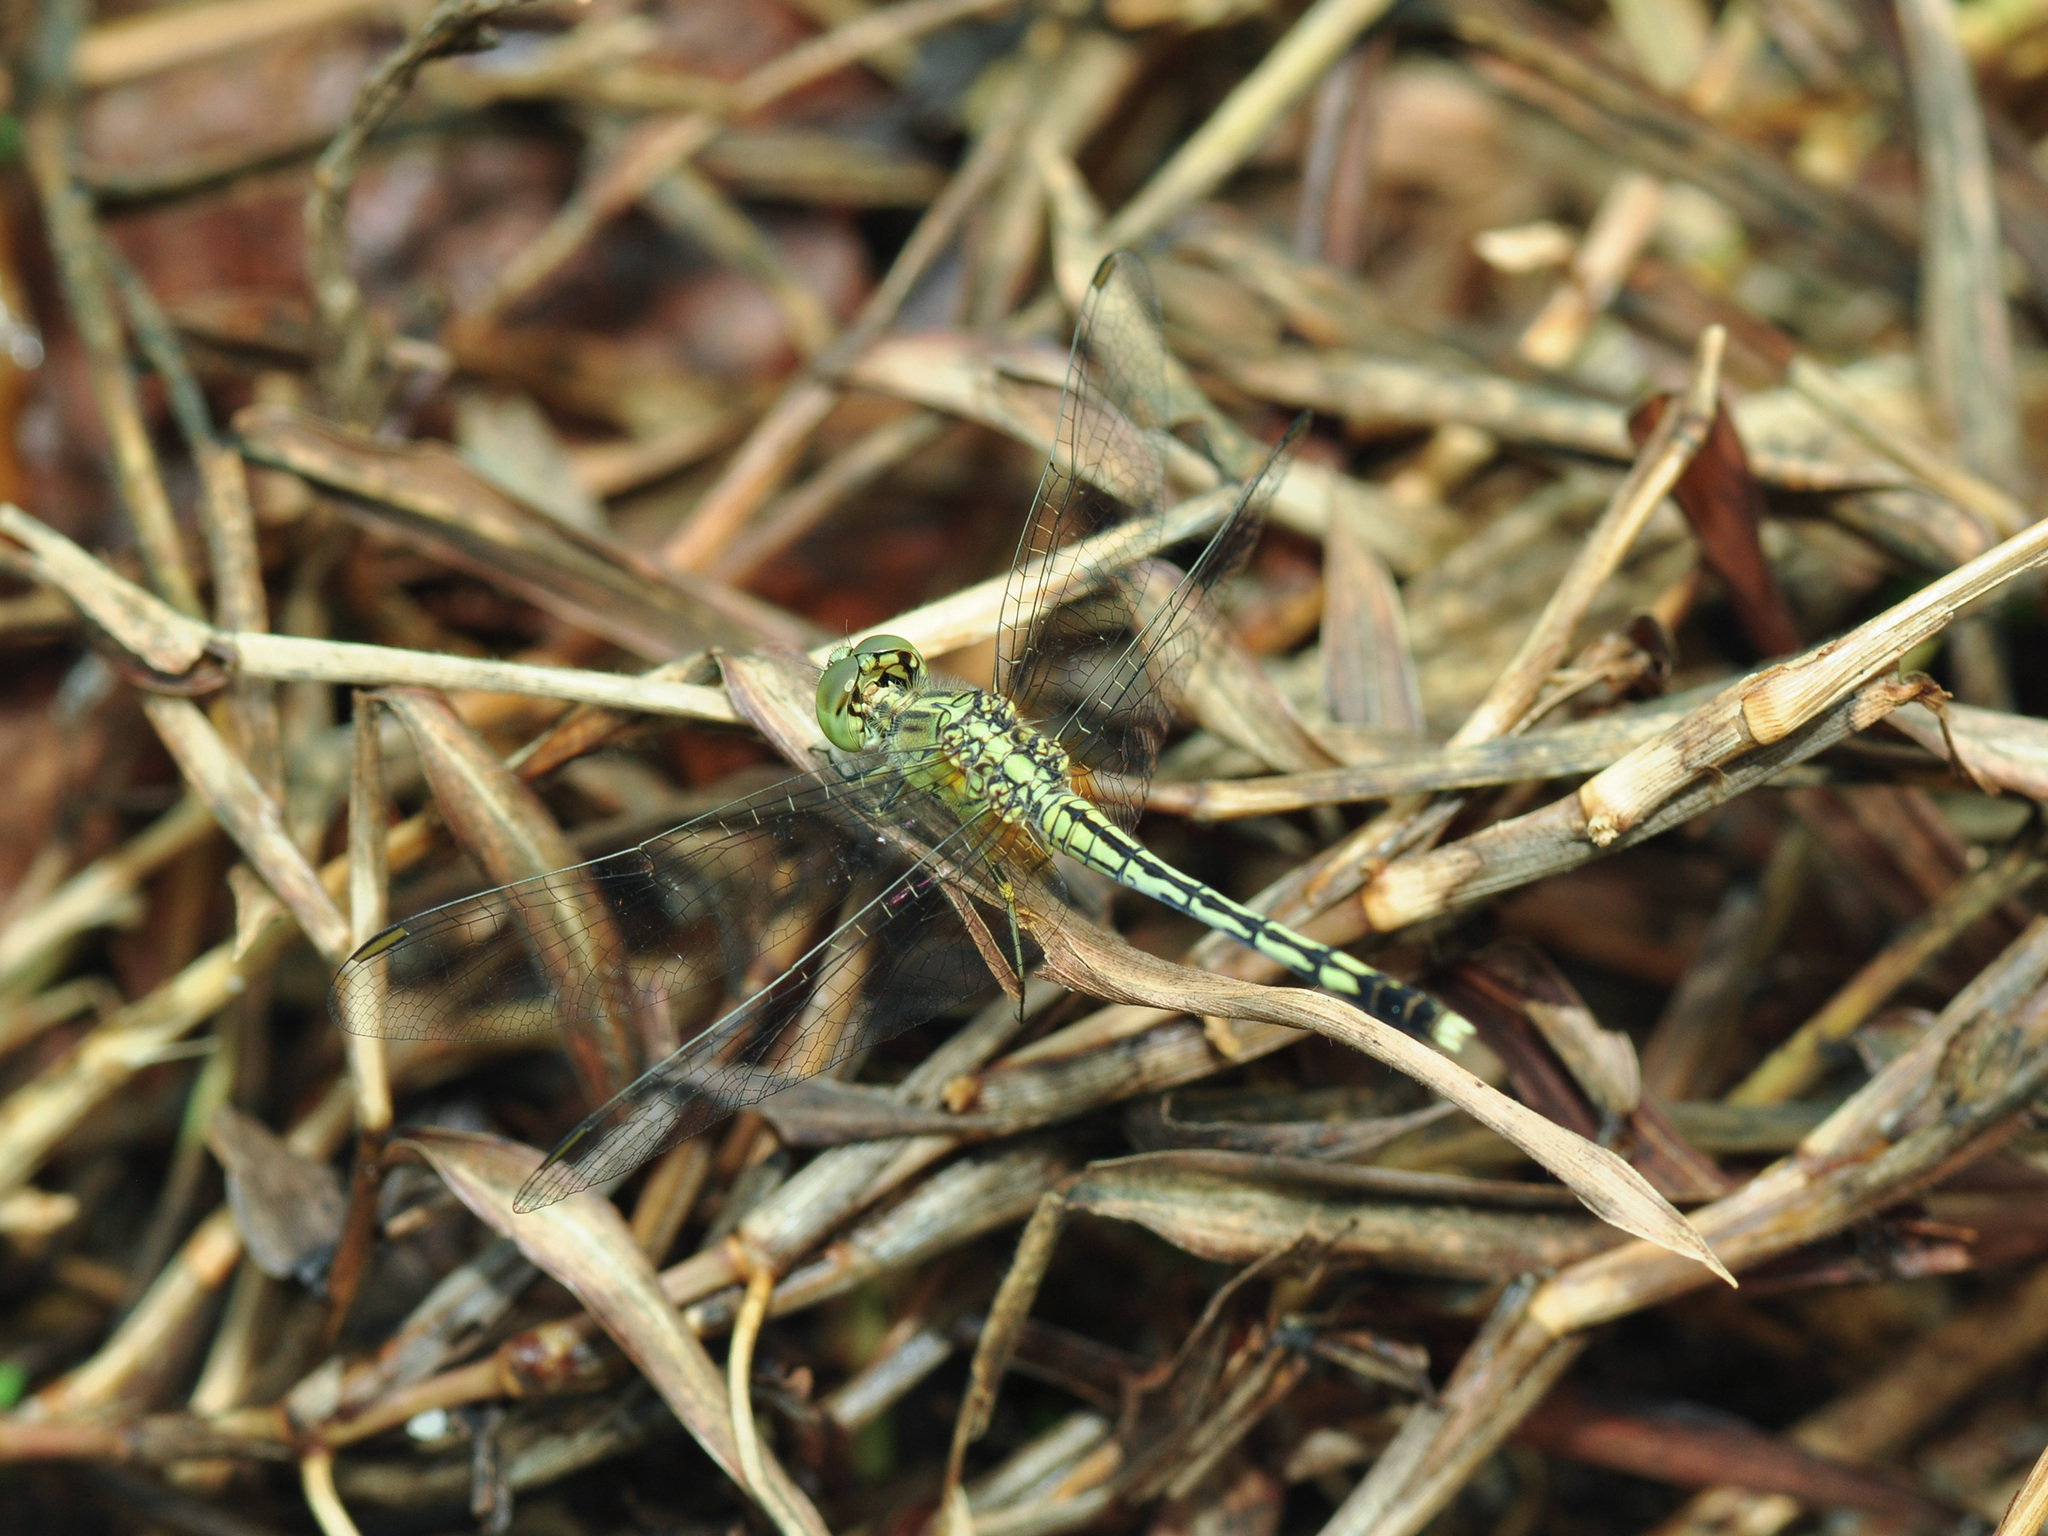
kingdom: Animalia
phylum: Arthropoda
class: Insecta
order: Odonata
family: Libellulidae
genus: Diplacodes
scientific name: Diplacodes trivialis
